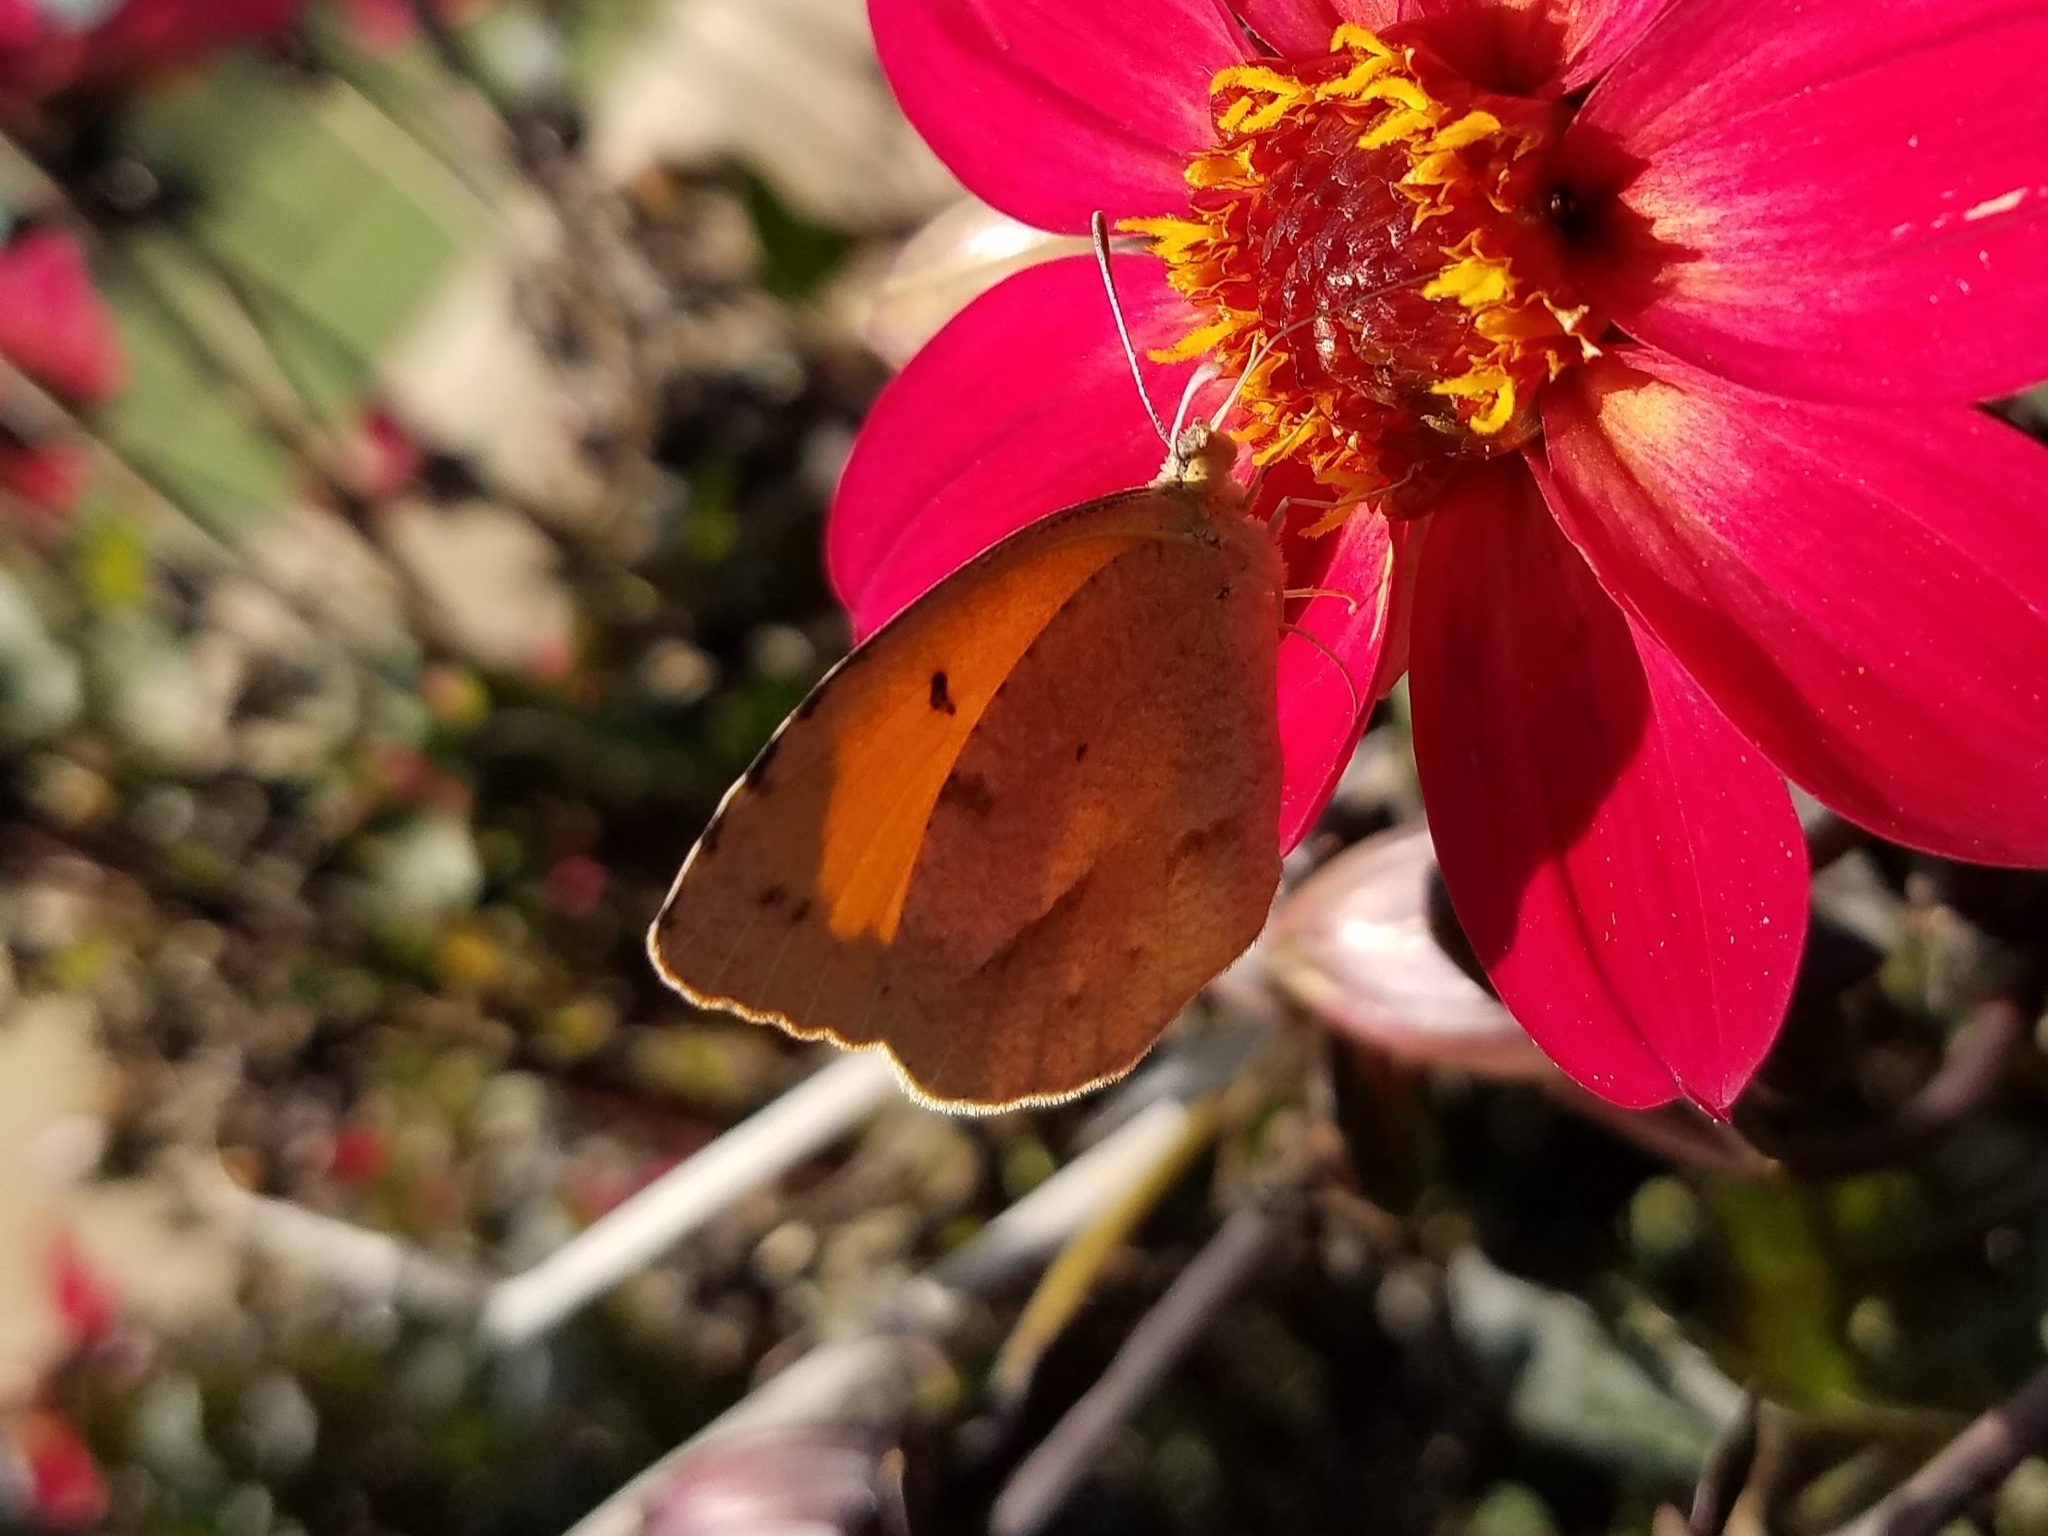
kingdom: Animalia
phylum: Arthropoda
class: Insecta
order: Lepidoptera
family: Pieridae
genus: Abaeis
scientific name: Abaeis nicippe
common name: Sleepy orange
